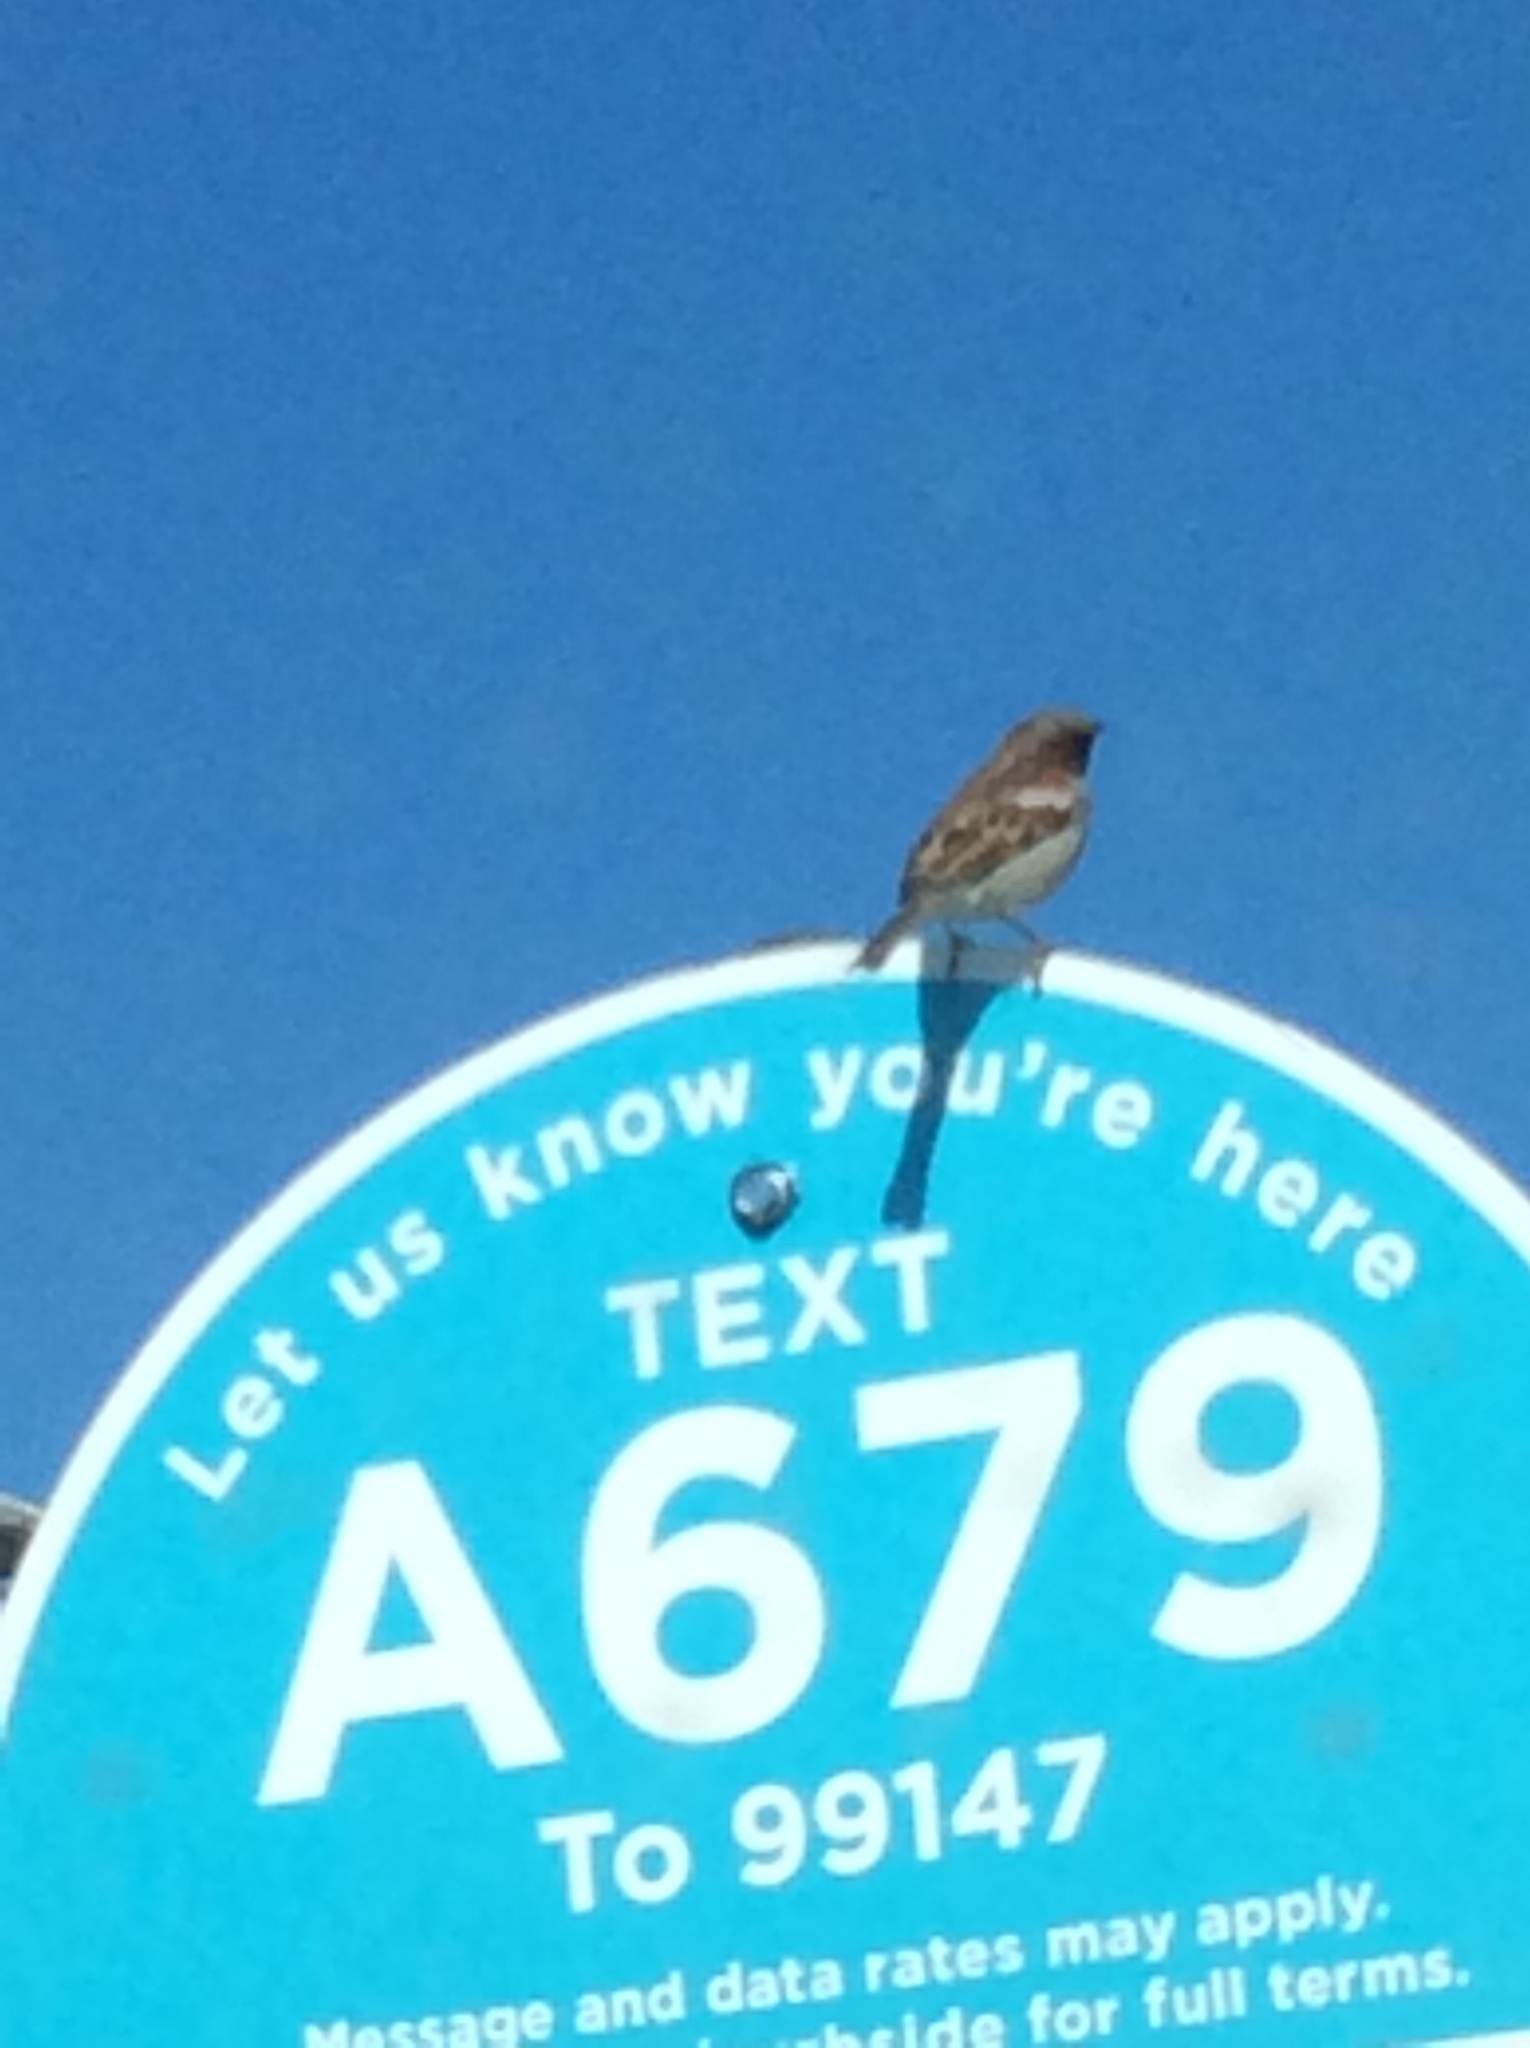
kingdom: Animalia
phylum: Chordata
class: Aves
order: Passeriformes
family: Passeridae
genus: Passer
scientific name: Passer domesticus
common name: House sparrow
